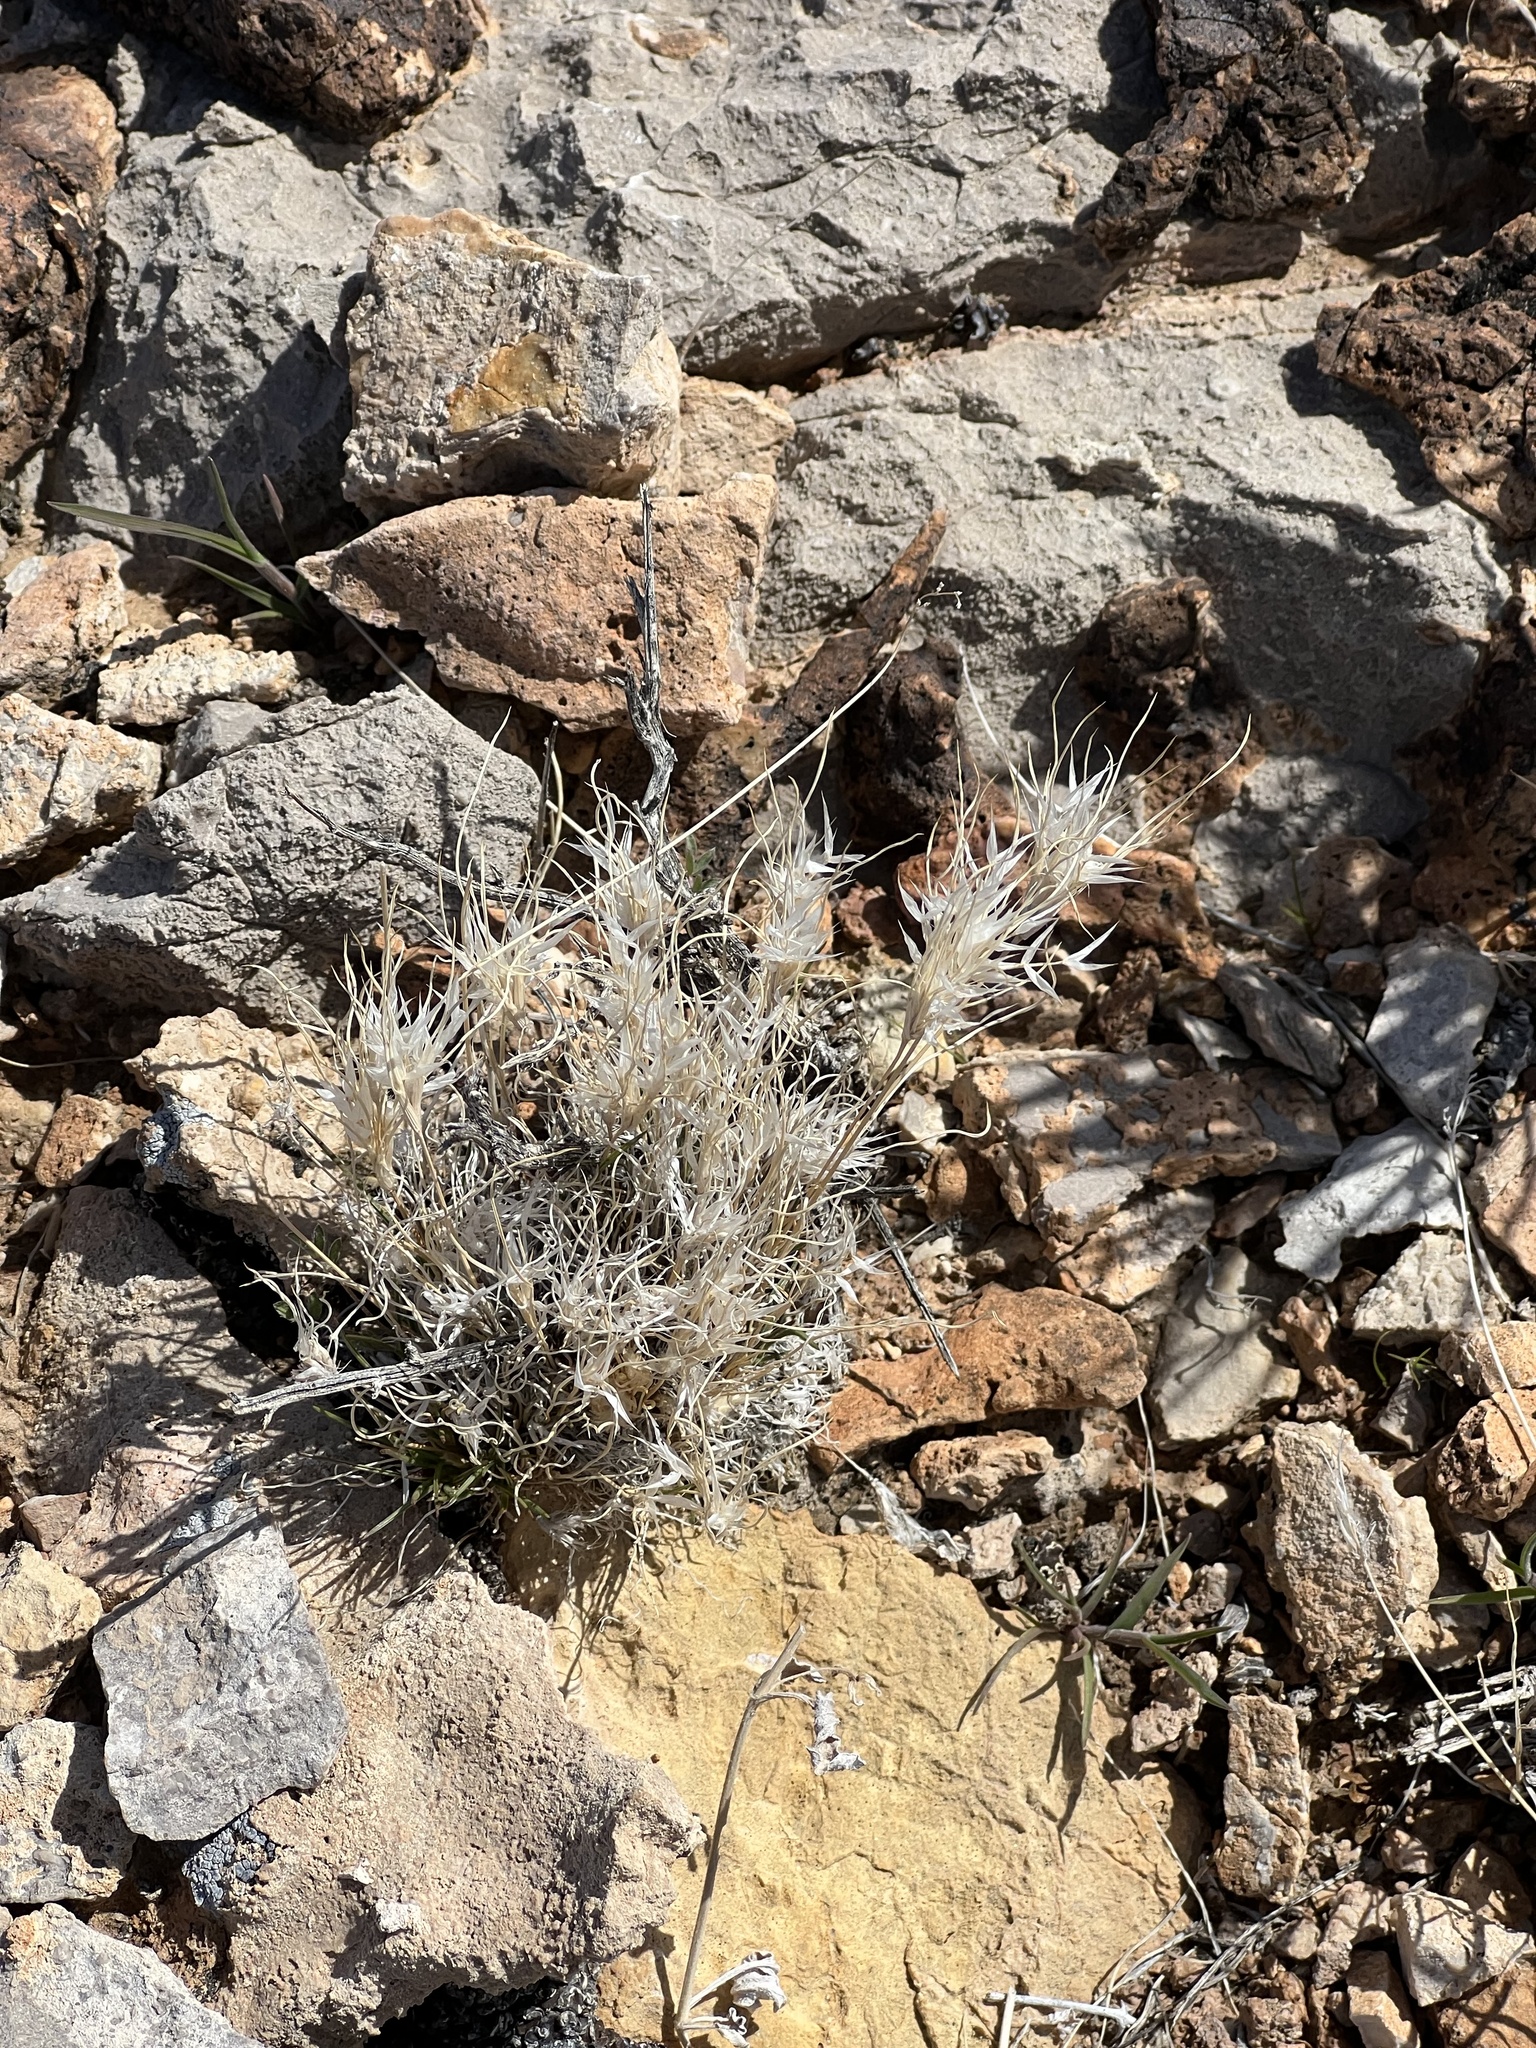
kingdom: Plantae
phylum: Tracheophyta
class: Liliopsida
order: Poales
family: Poaceae
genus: Dasyochloa
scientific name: Dasyochloa pulchella
